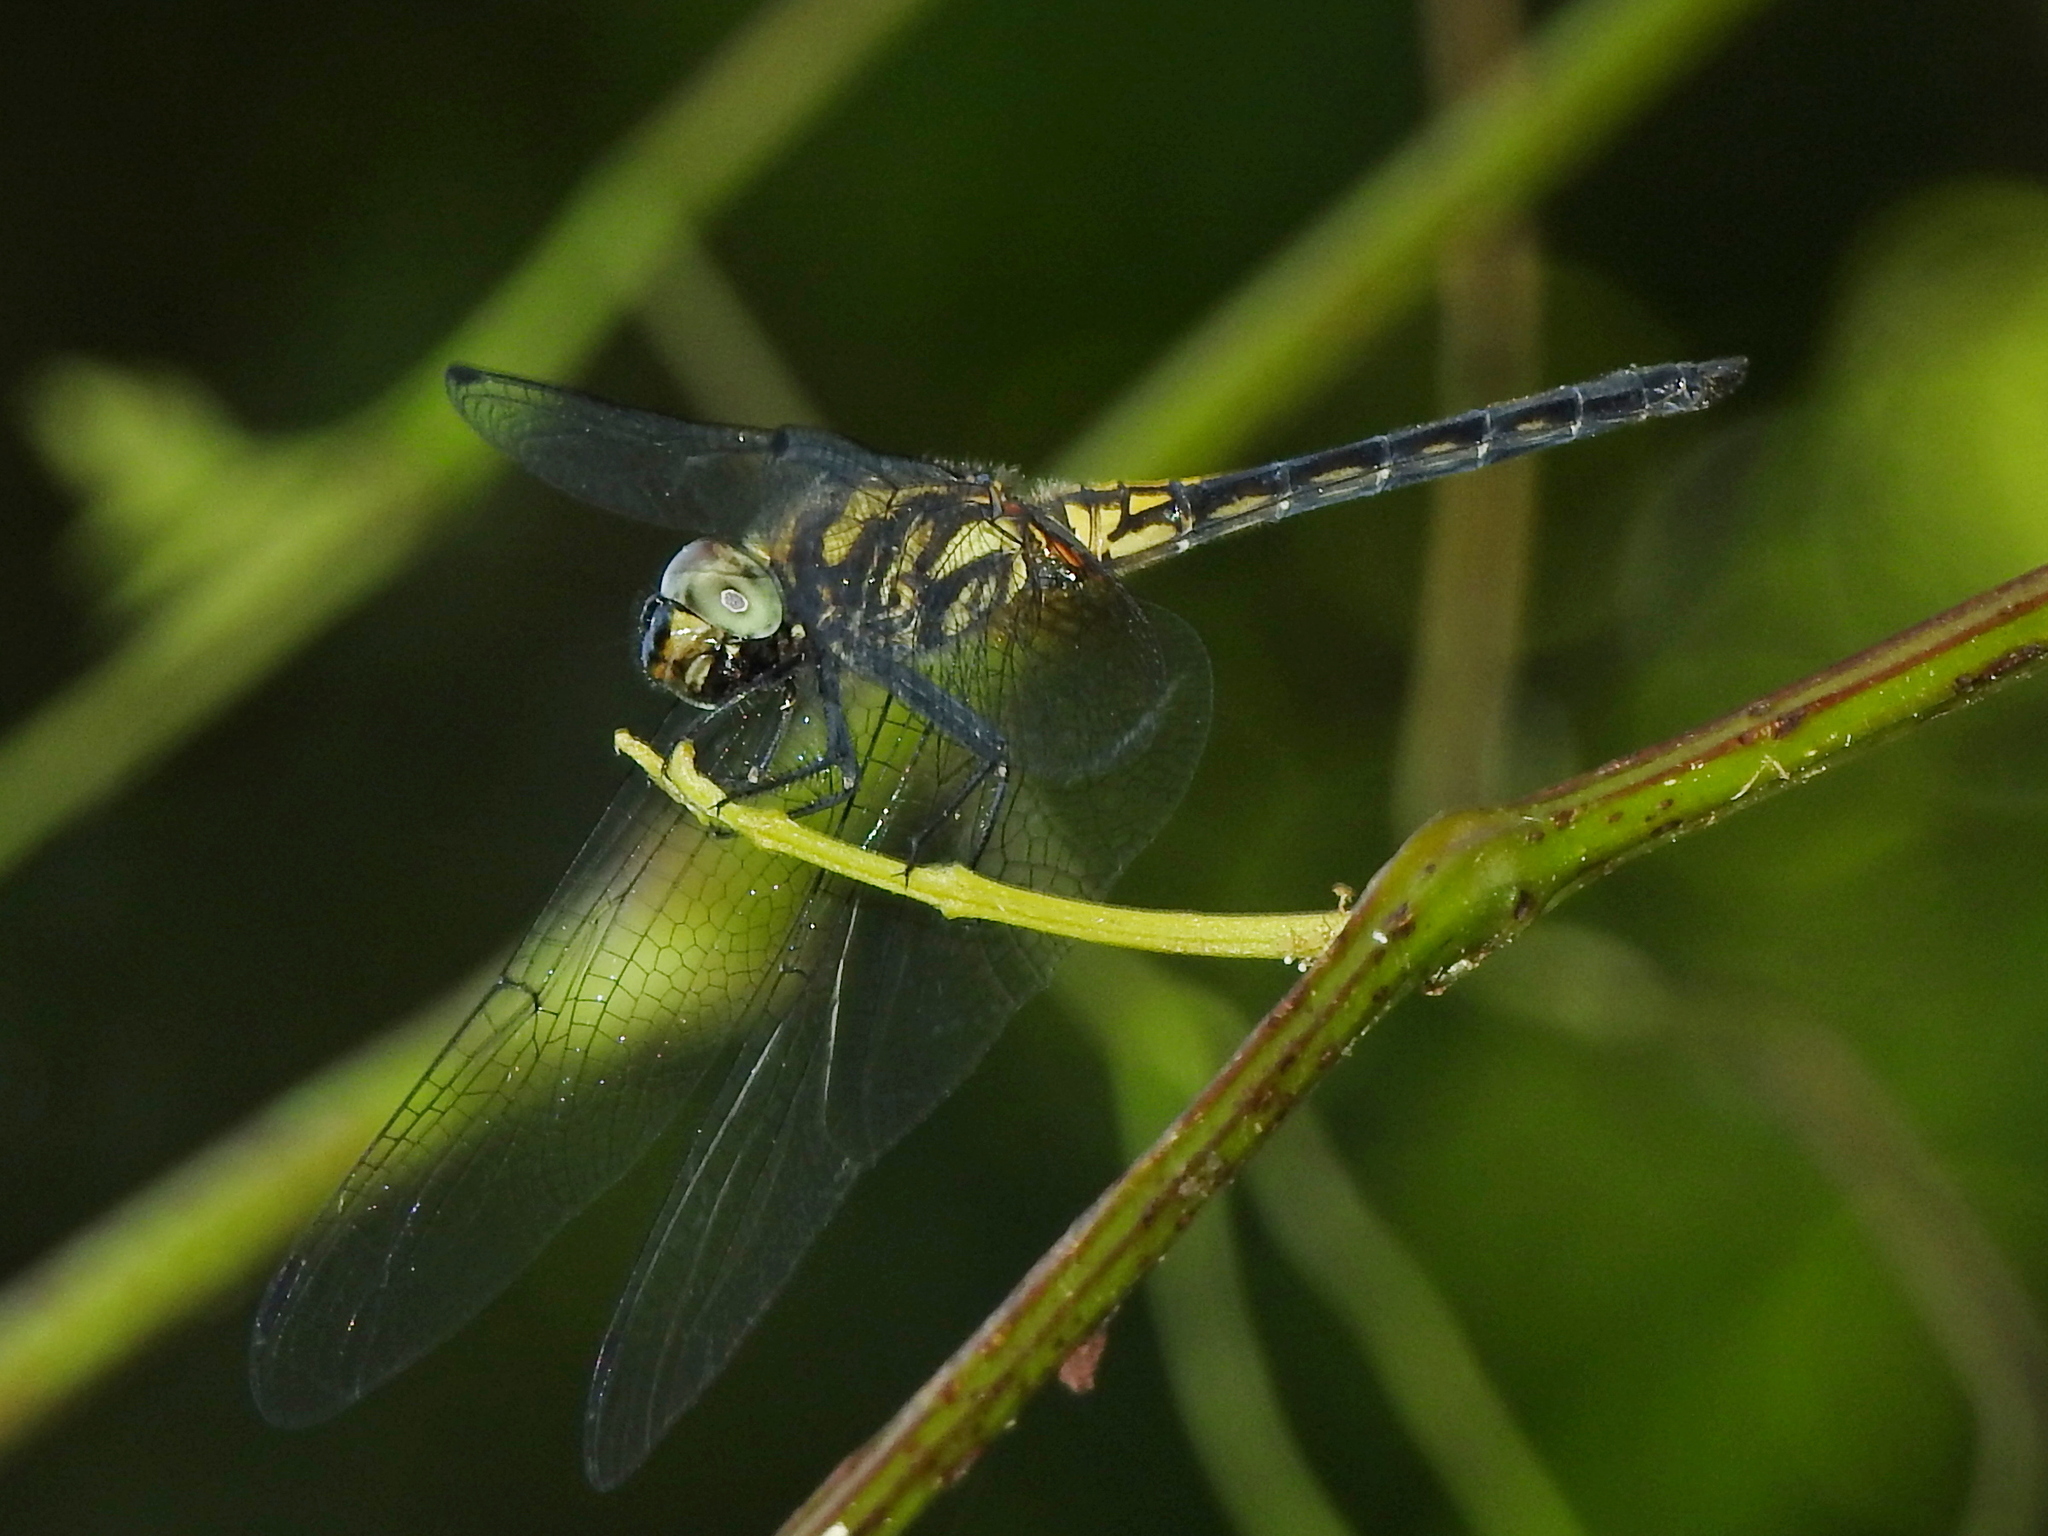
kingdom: Animalia
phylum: Arthropoda
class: Insecta
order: Odonata
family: Libellulidae
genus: Trithemis
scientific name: Trithemis festiva
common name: Indigo dropwing
